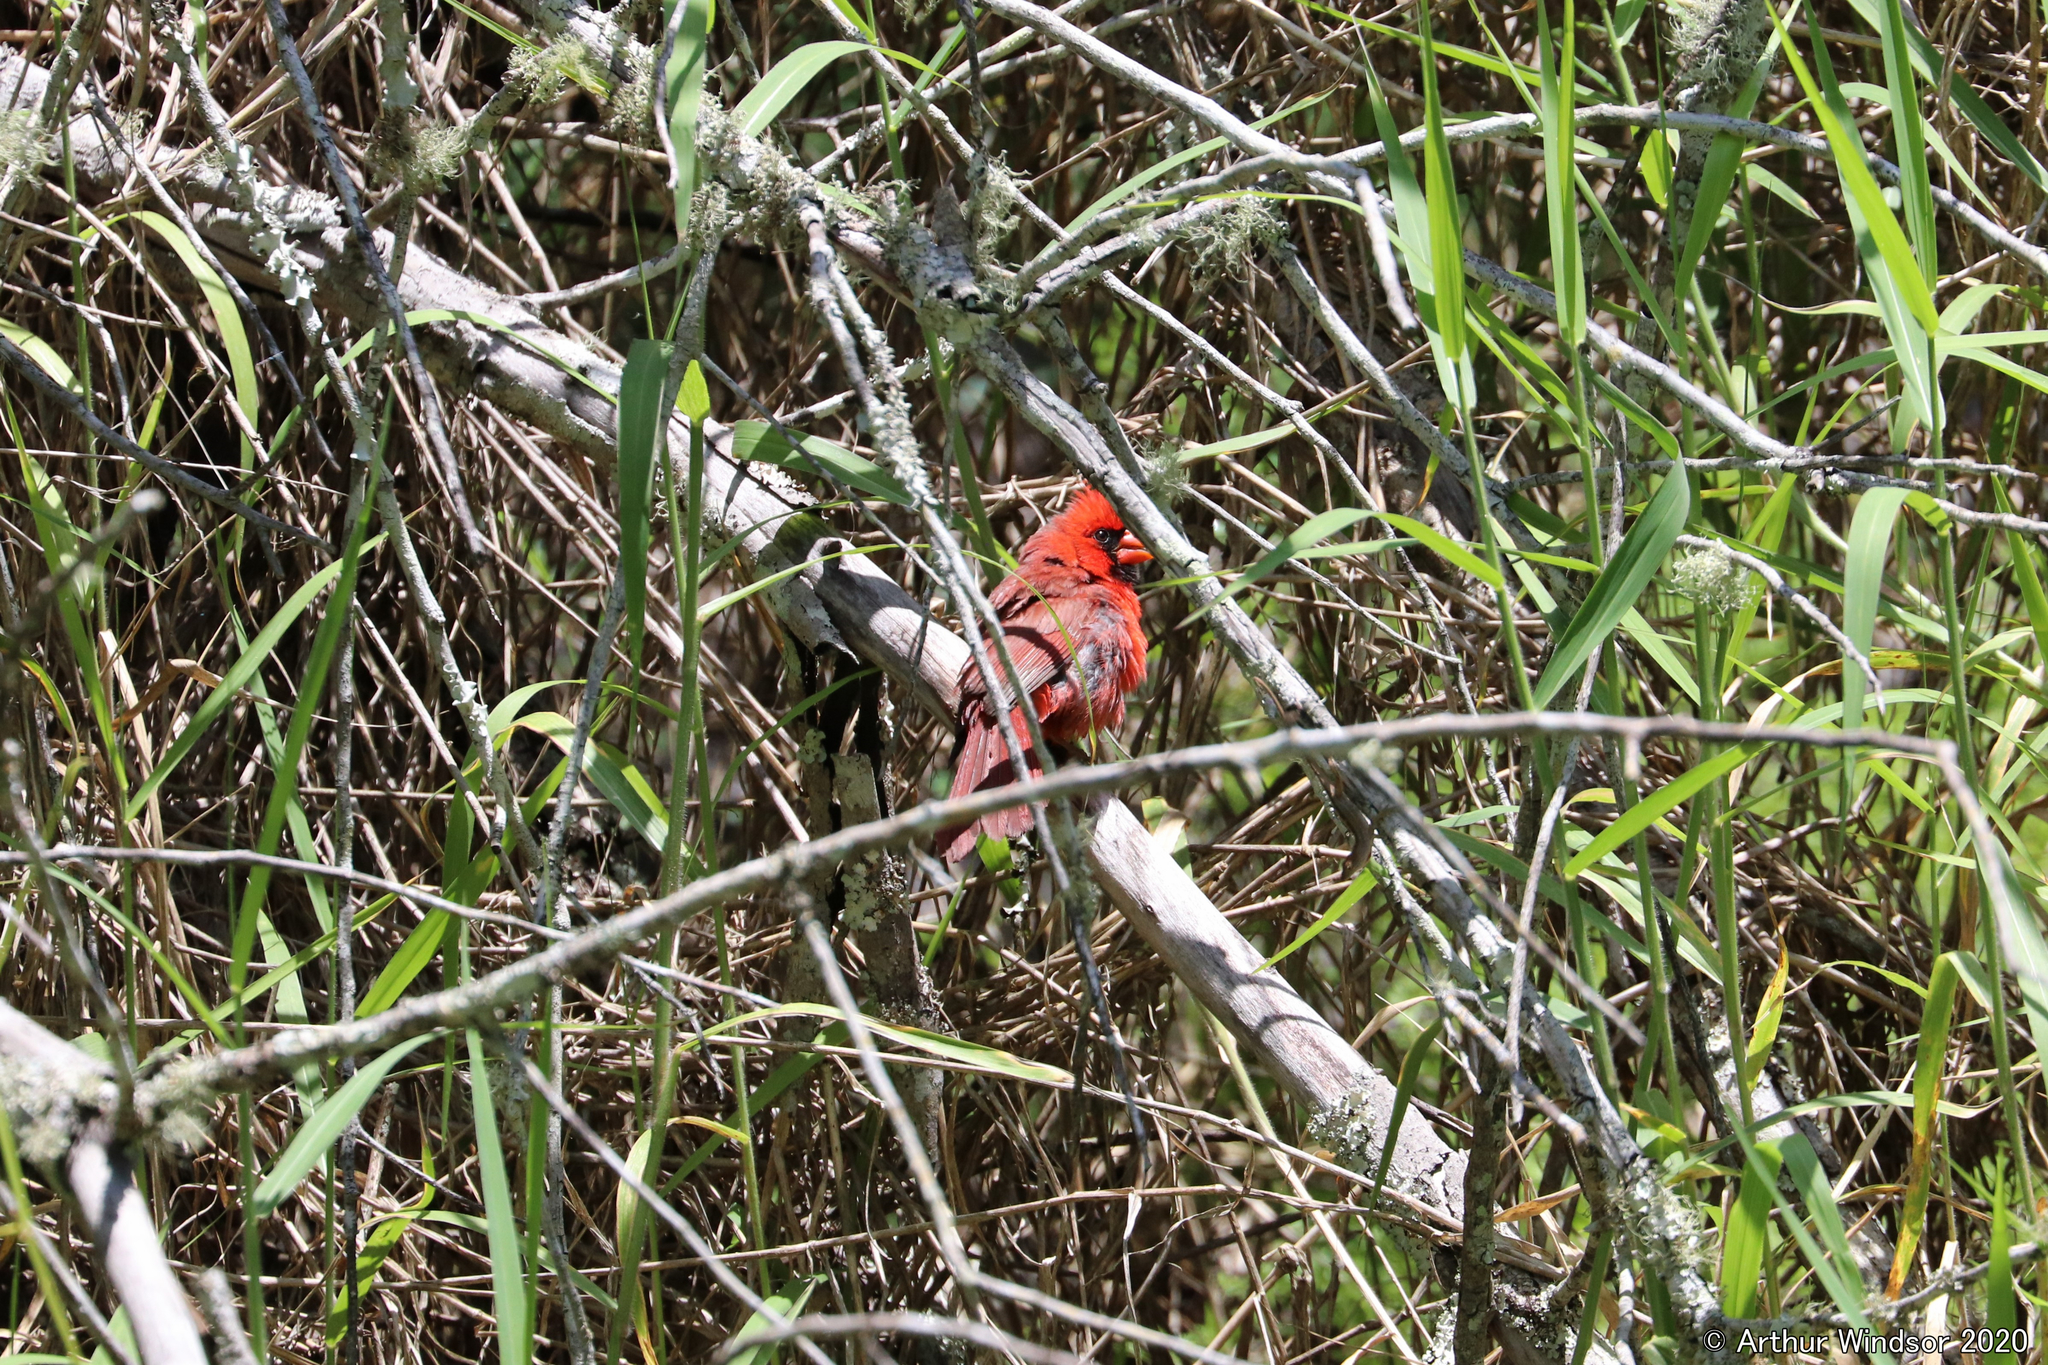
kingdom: Animalia
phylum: Chordata
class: Aves
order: Passeriformes
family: Cardinalidae
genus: Cardinalis
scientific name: Cardinalis cardinalis
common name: Northern cardinal
